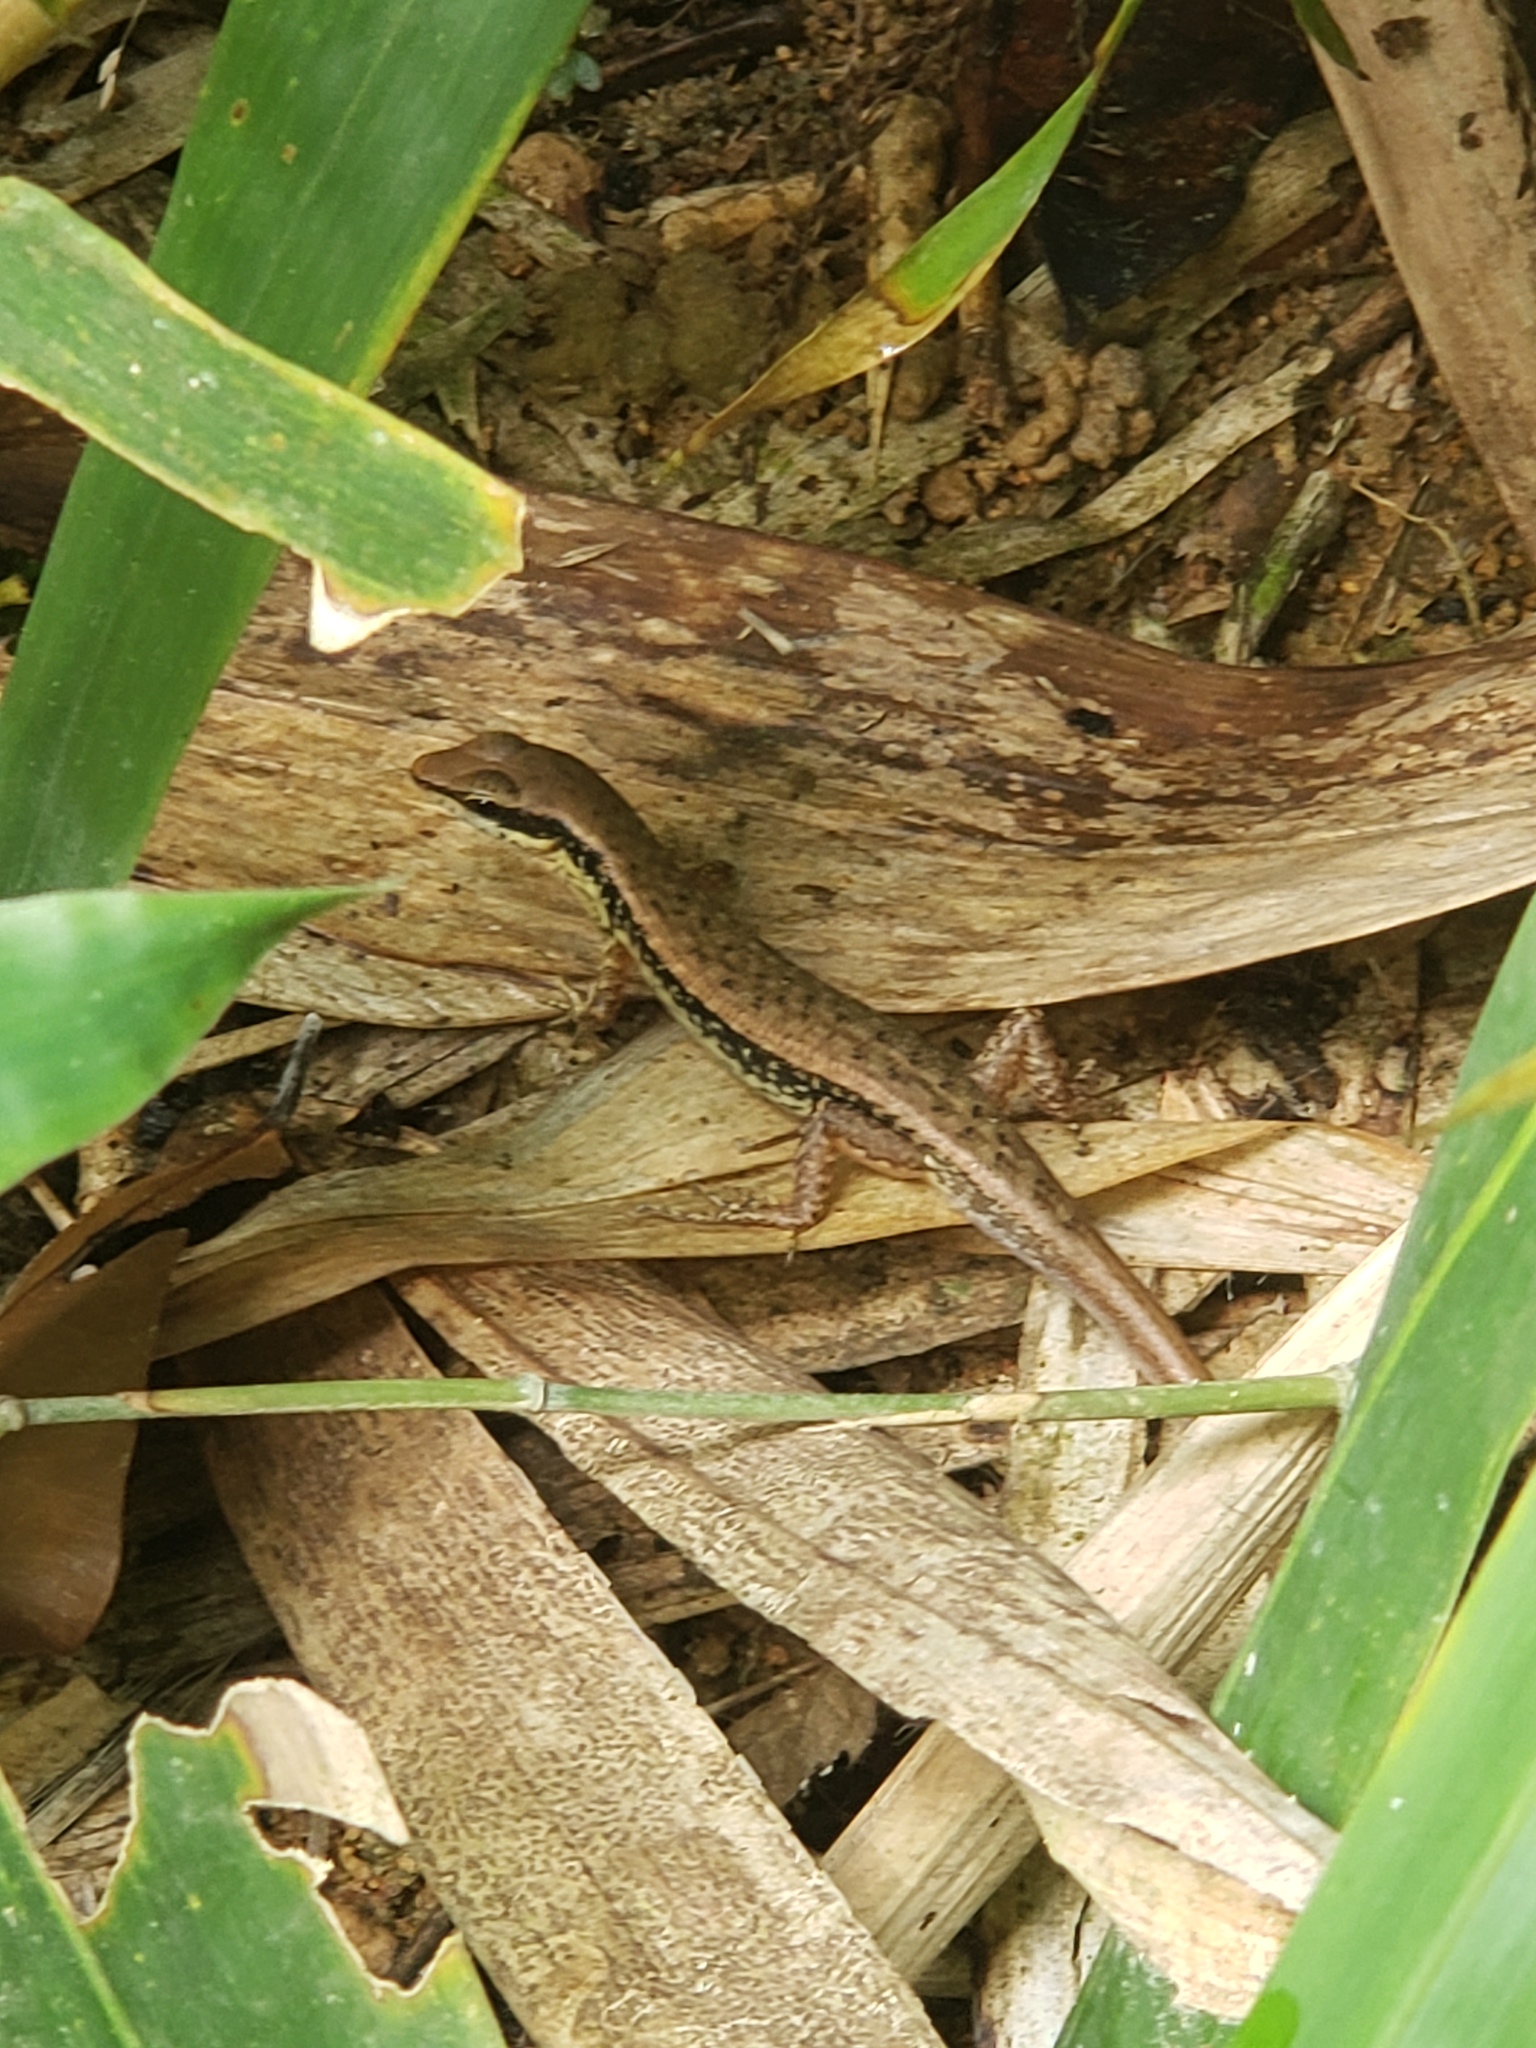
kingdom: Animalia
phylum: Chordata
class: Squamata
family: Scincidae
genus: Sphenomorphus
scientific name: Sphenomorphus maculatus
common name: Maculated forest skink
